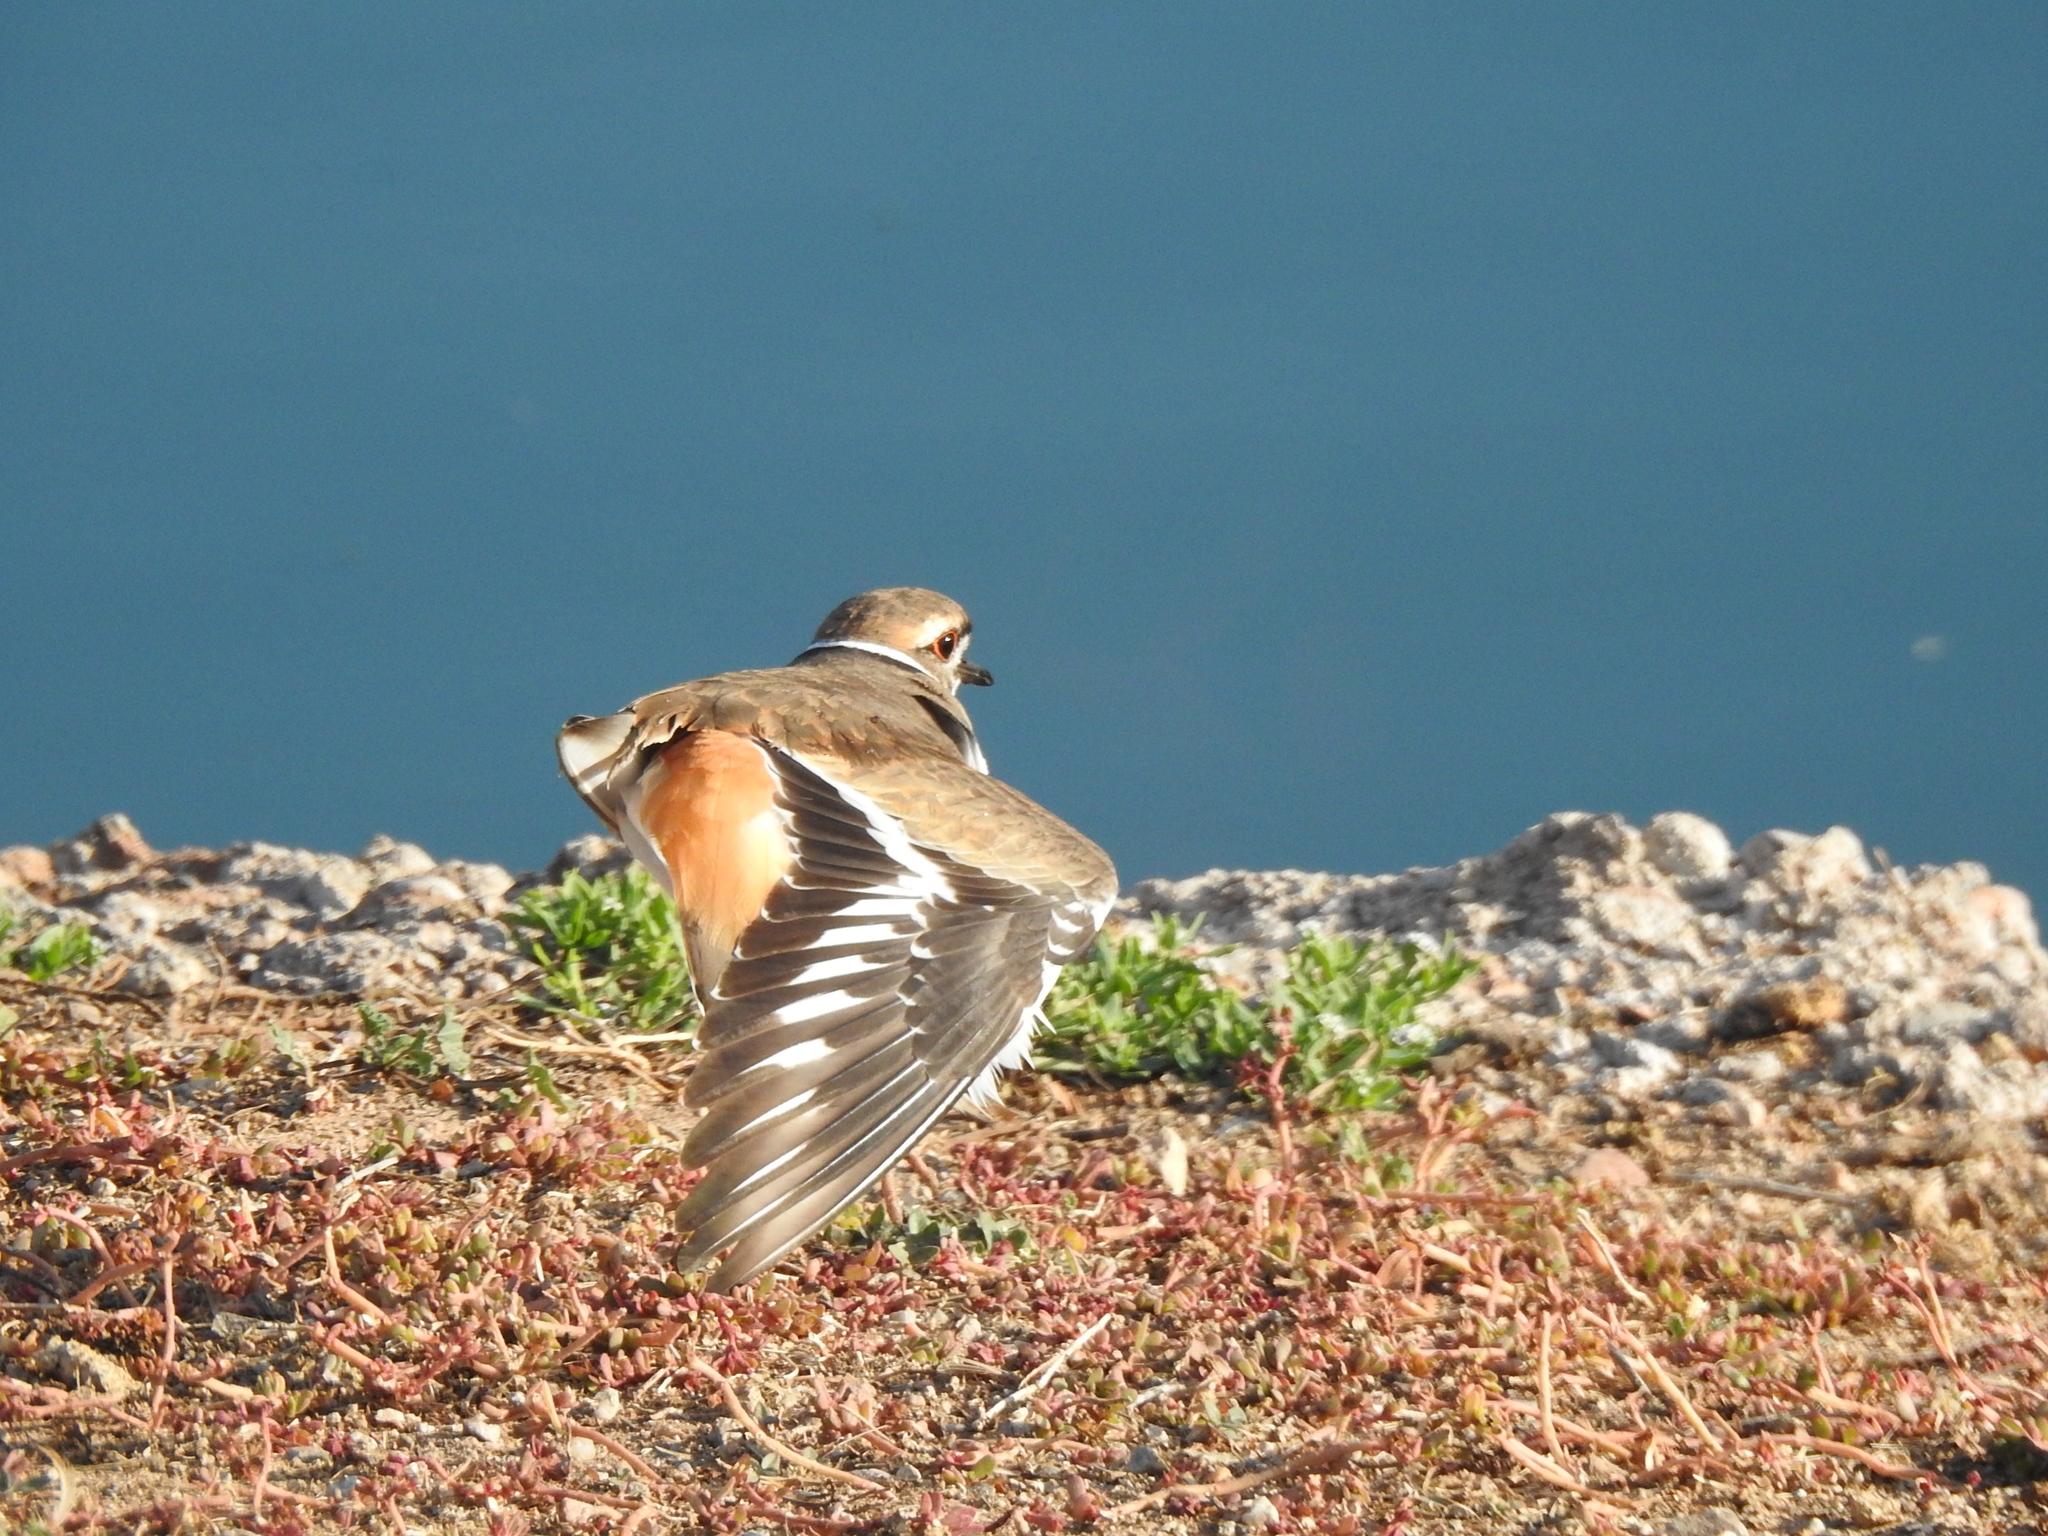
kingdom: Animalia
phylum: Chordata
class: Aves
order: Charadriiformes
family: Charadriidae
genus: Charadrius
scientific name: Charadrius vociferus
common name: Killdeer
